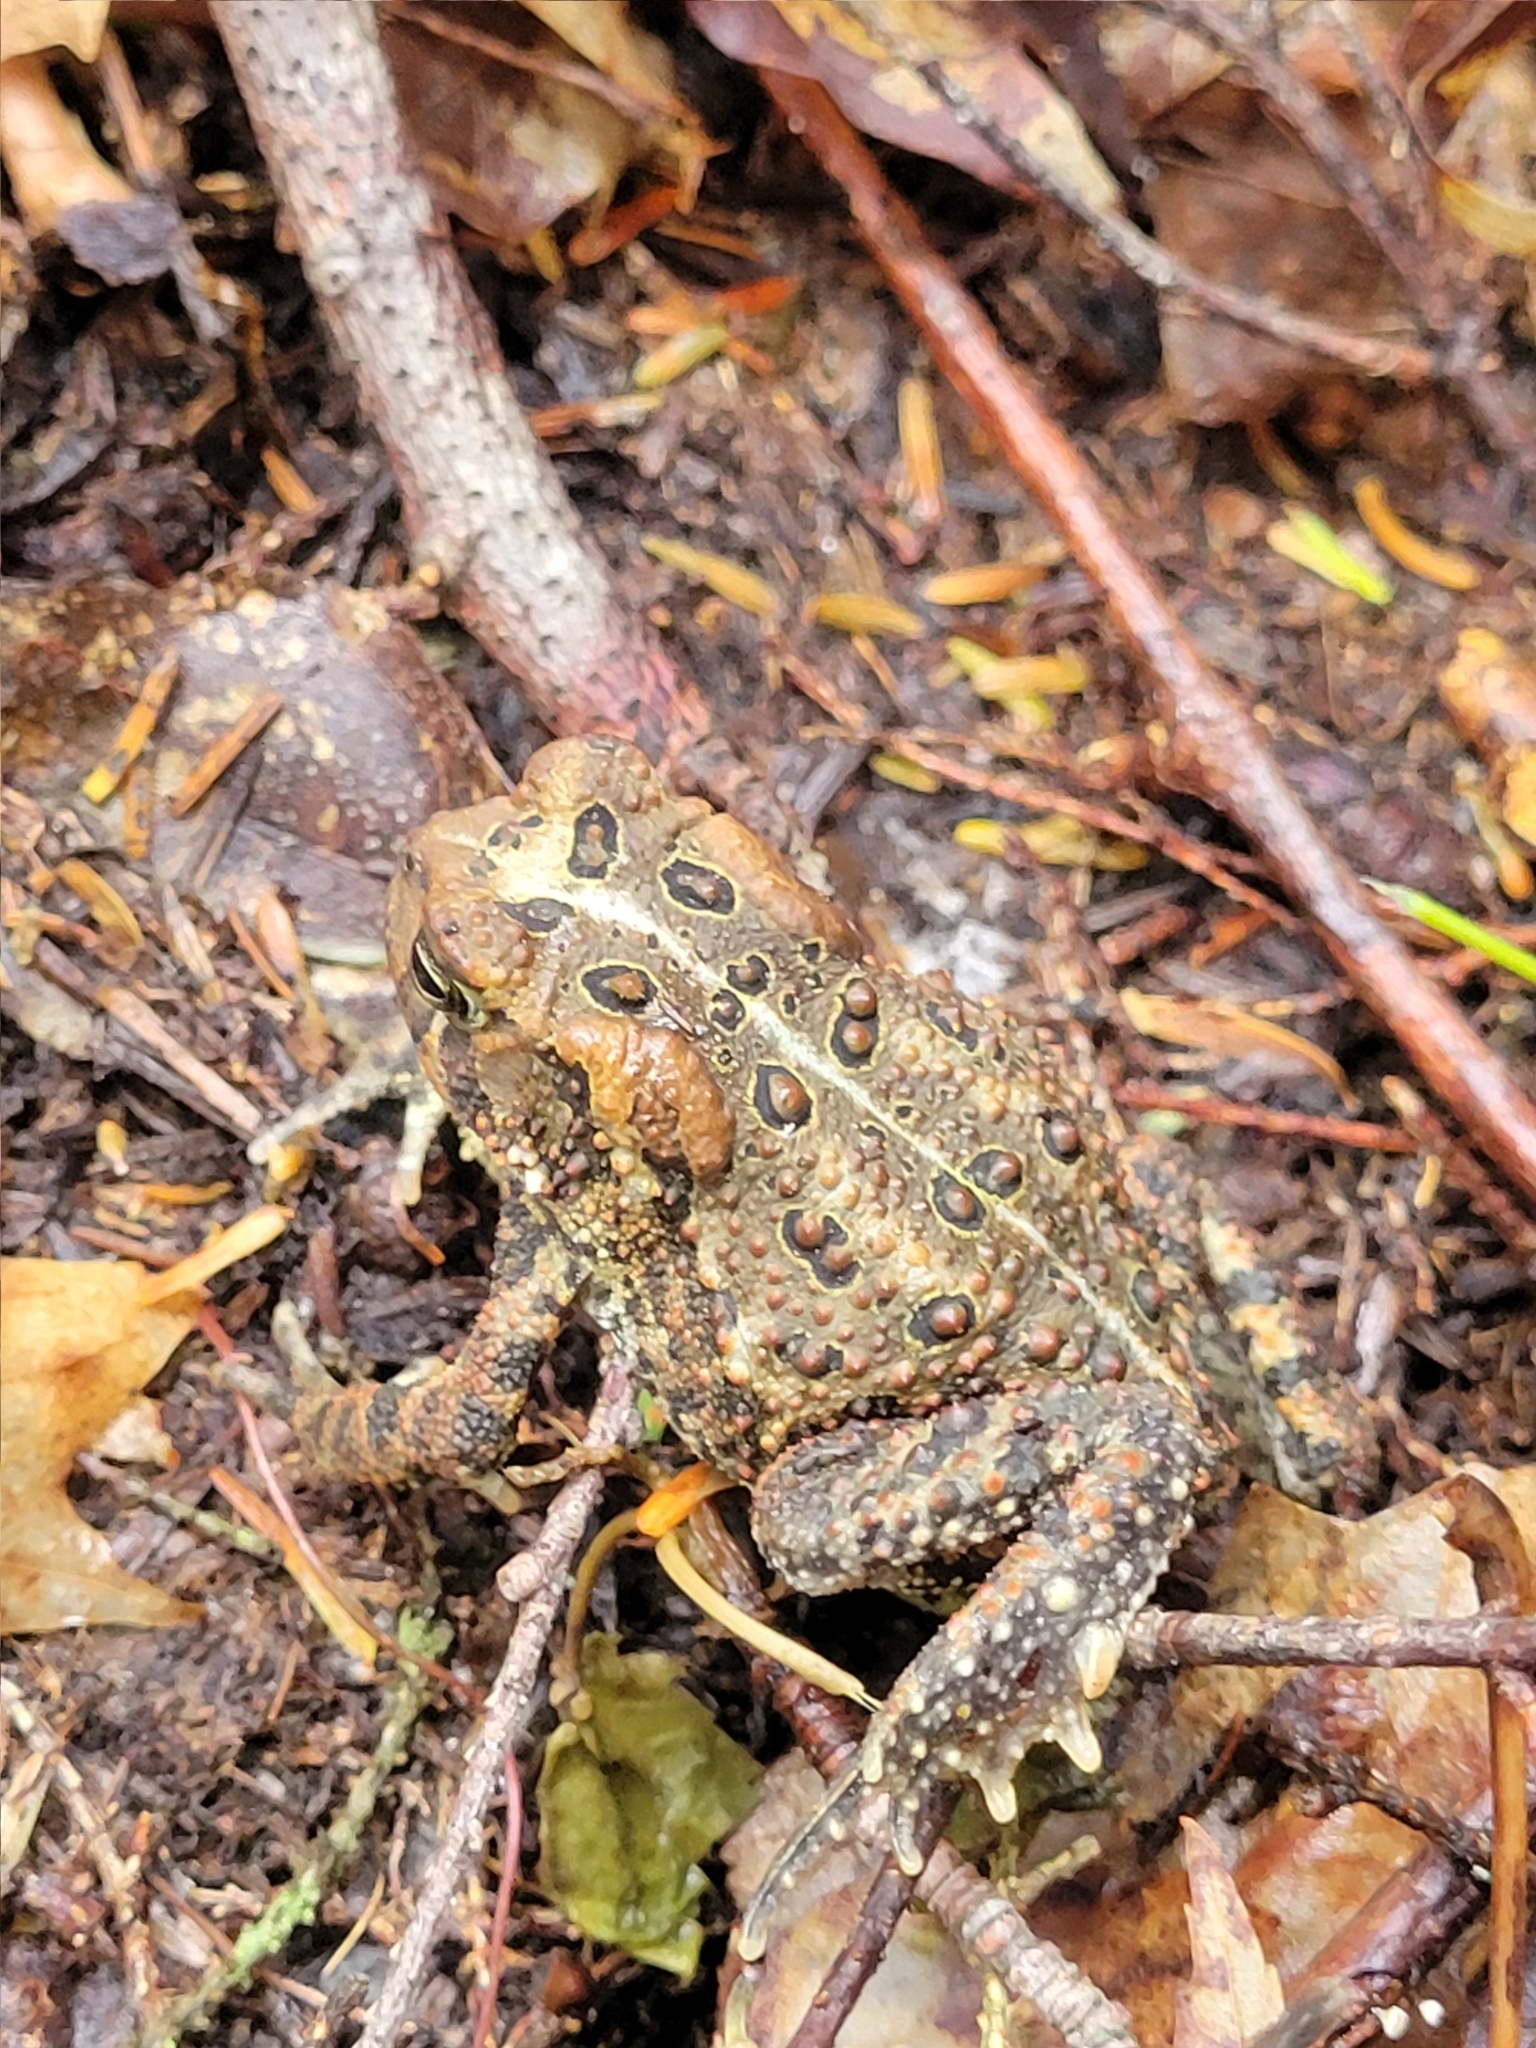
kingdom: Animalia
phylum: Chordata
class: Amphibia
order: Anura
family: Bufonidae
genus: Anaxyrus
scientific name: Anaxyrus americanus
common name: American toad
